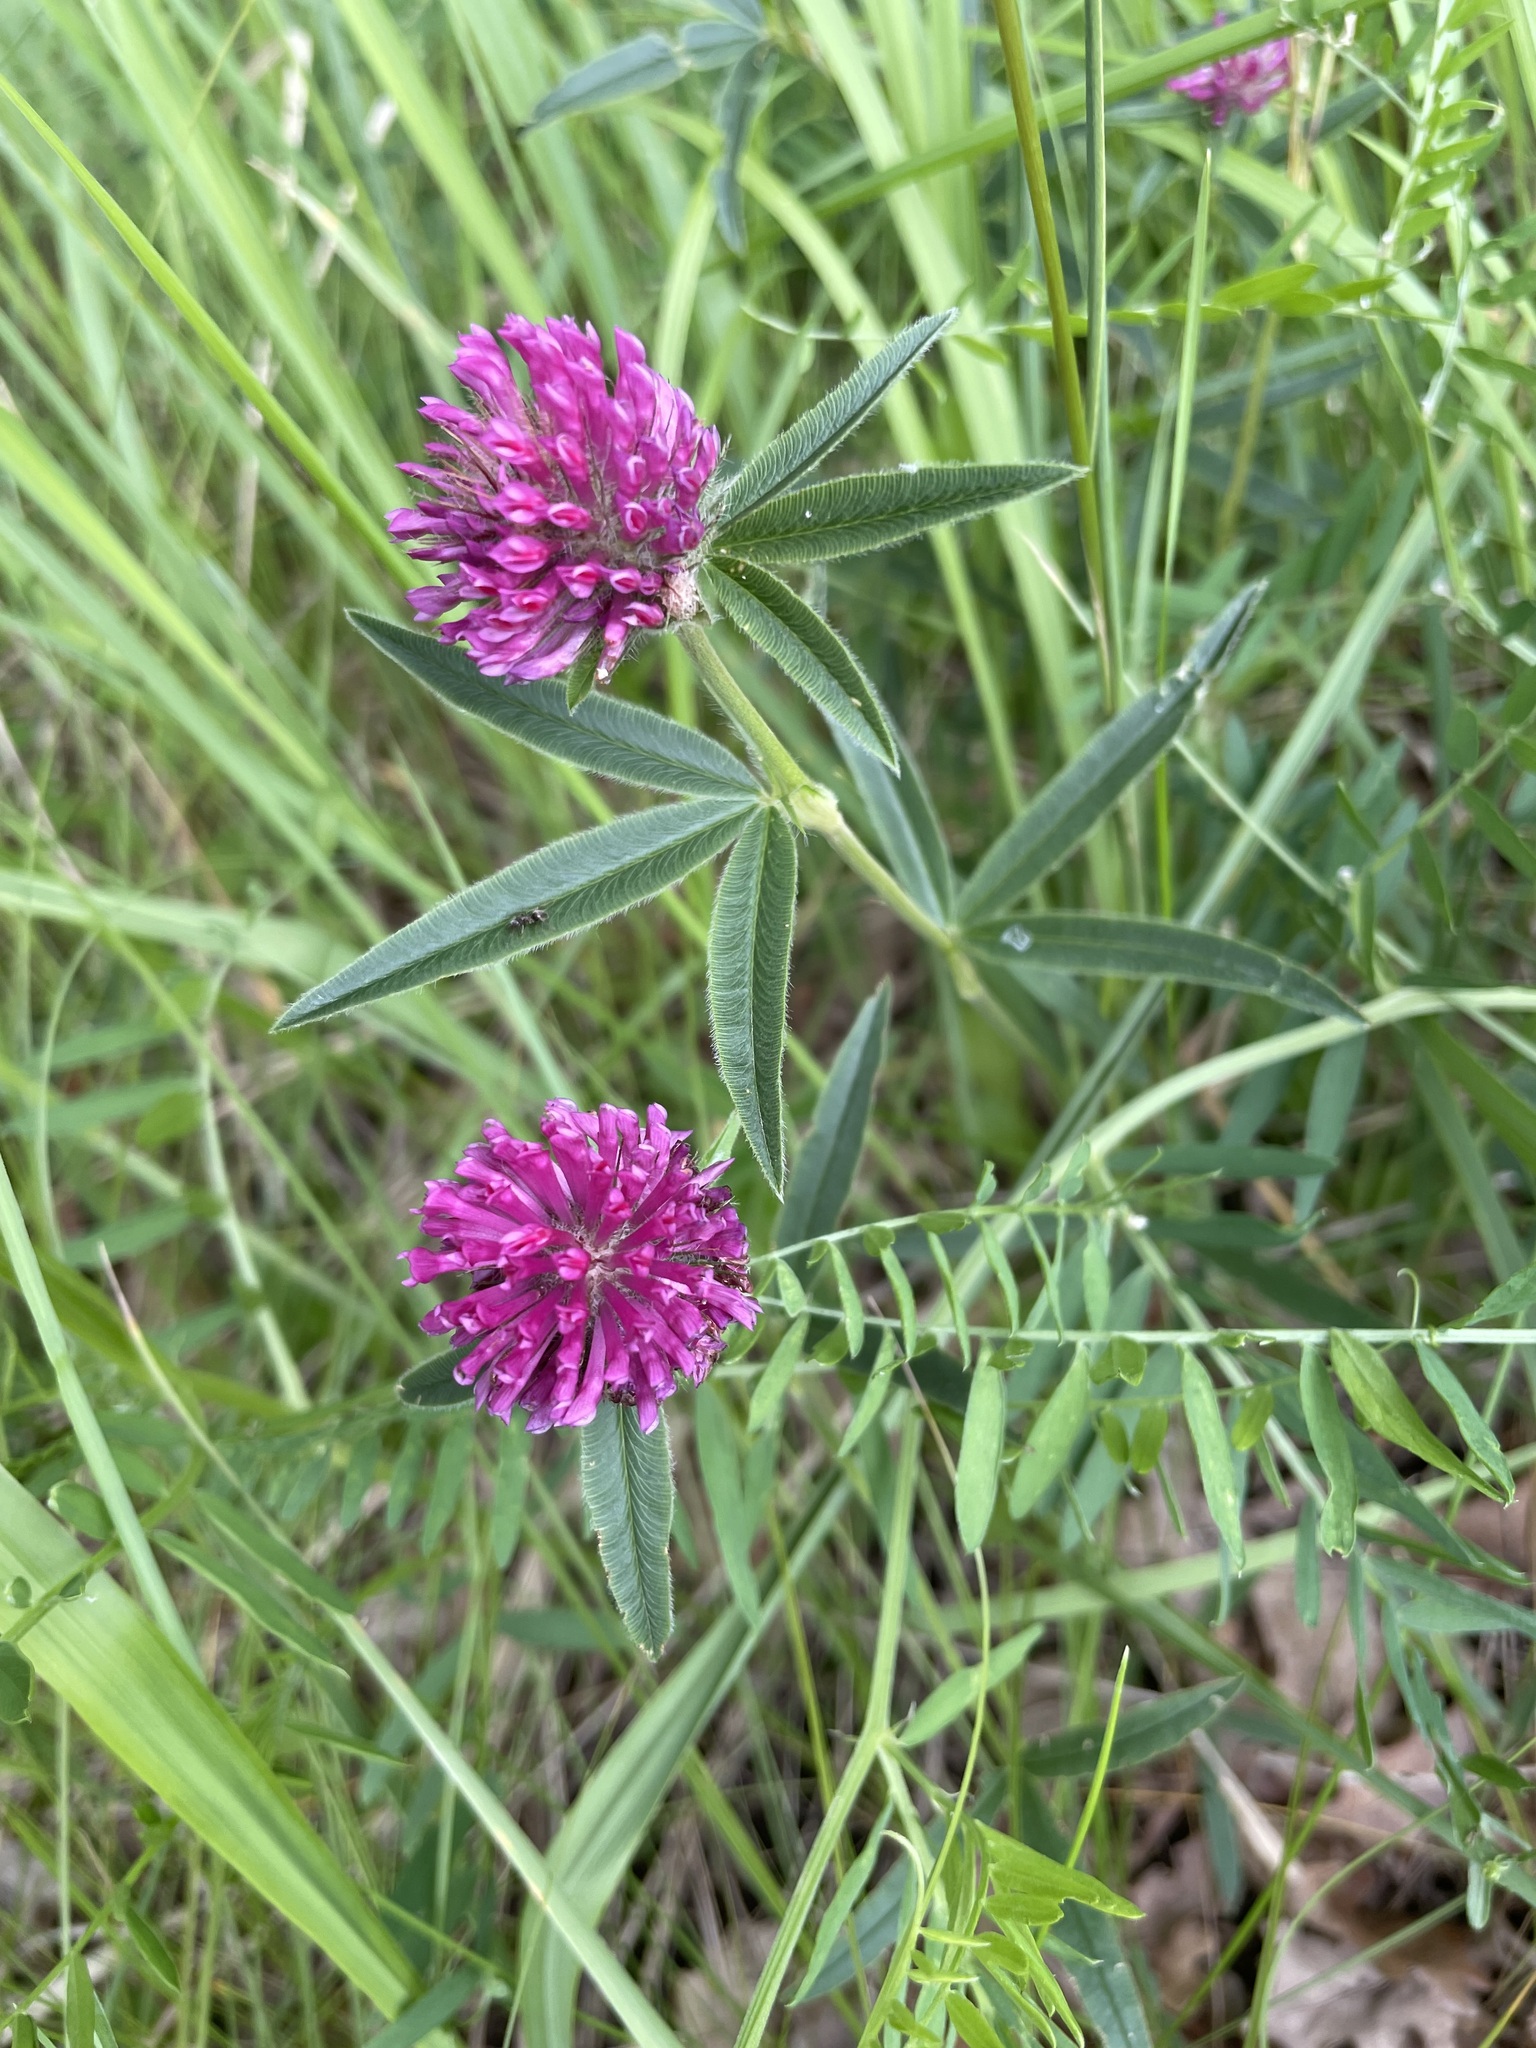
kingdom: Plantae
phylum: Tracheophyta
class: Magnoliopsida
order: Fabales
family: Fabaceae
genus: Trifolium
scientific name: Trifolium alpestre
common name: Owl-head clover
